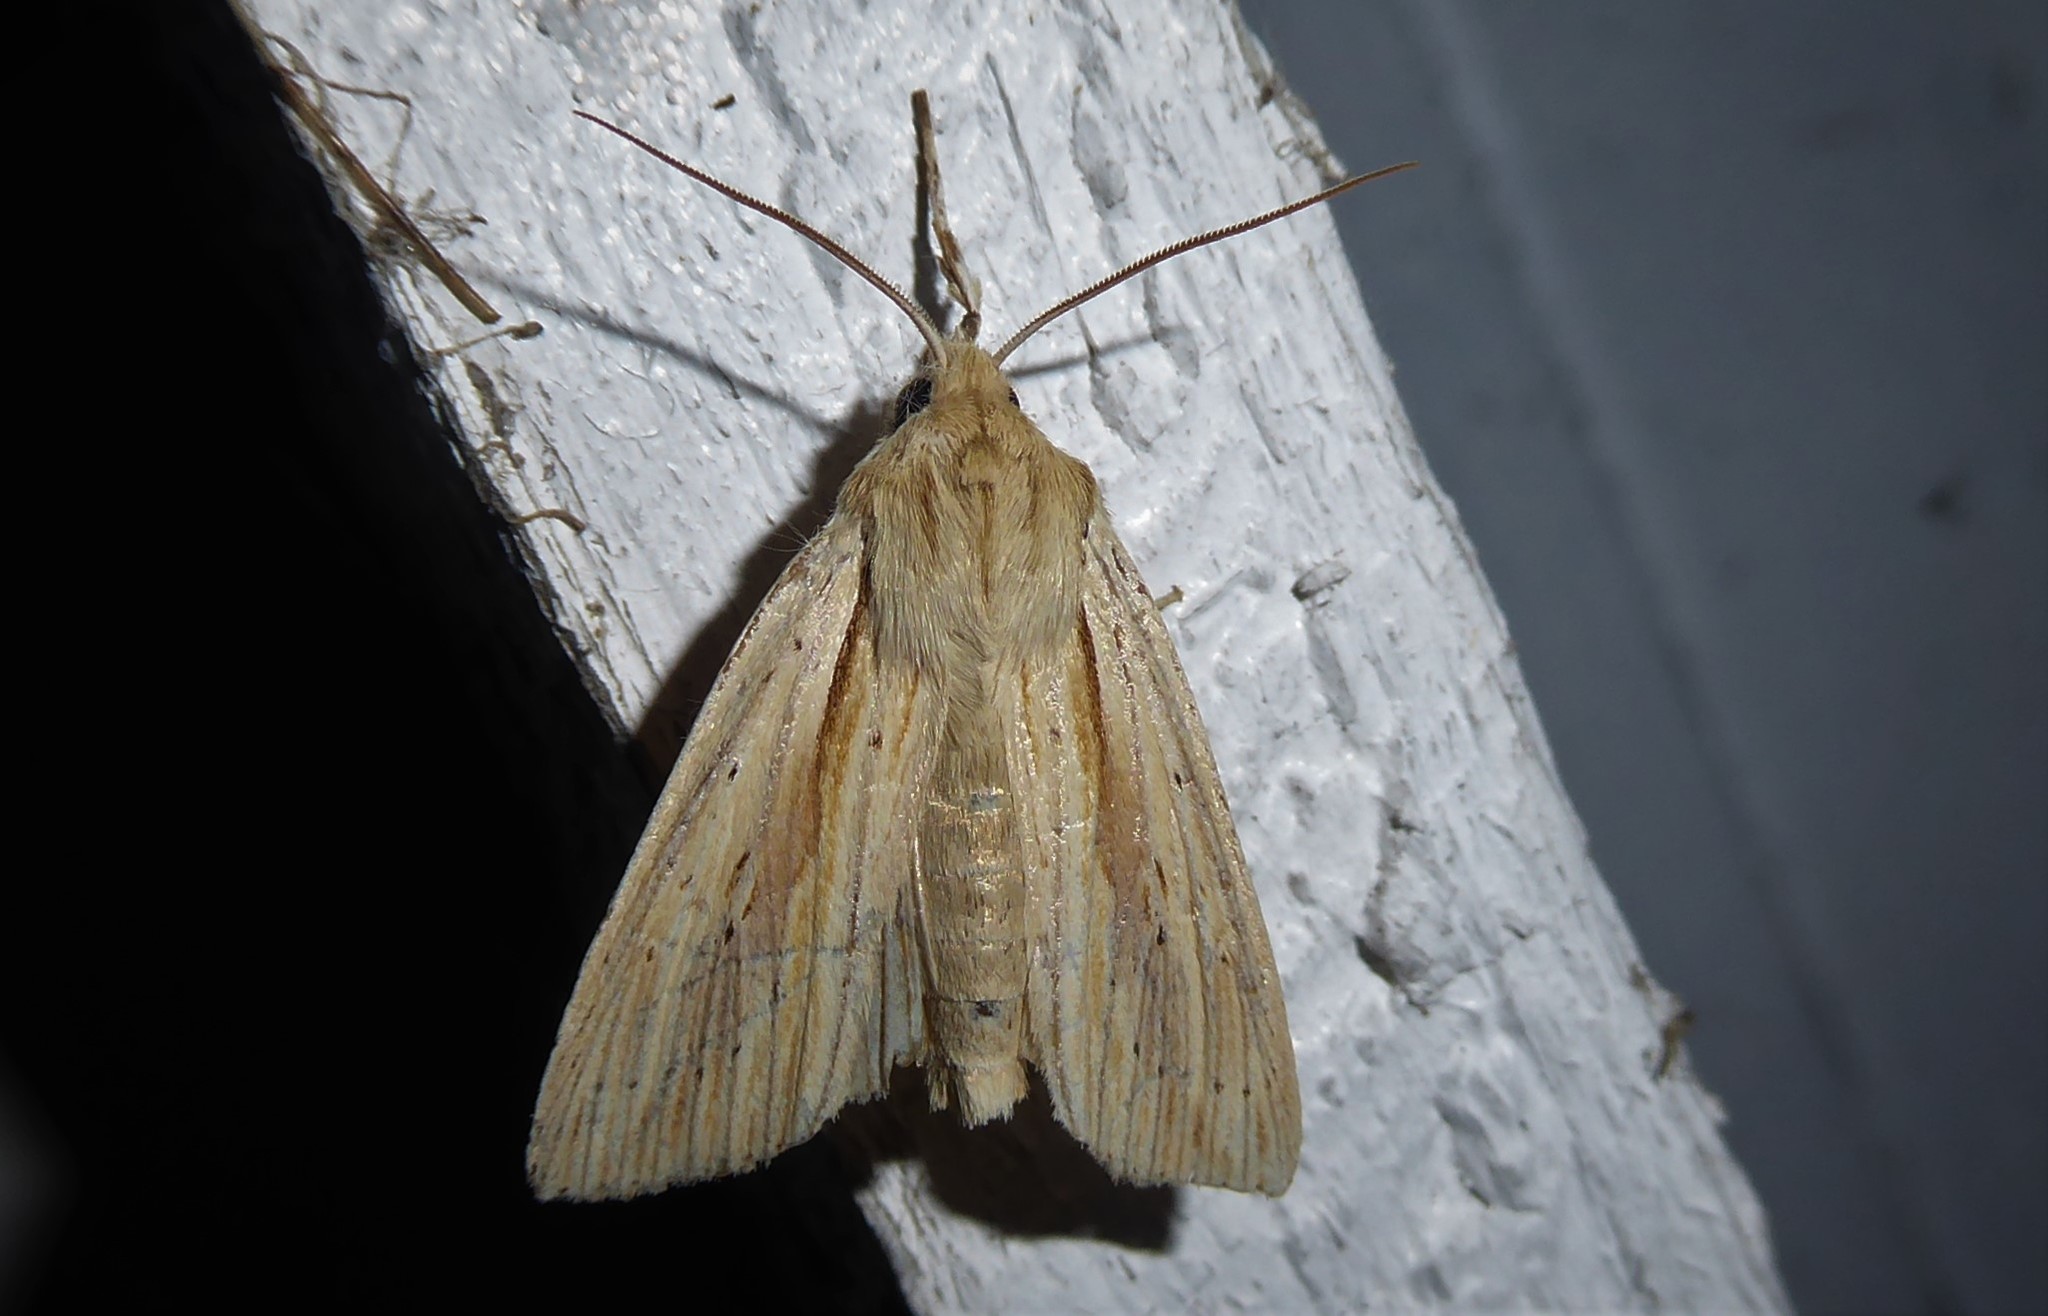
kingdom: Animalia
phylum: Arthropoda
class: Insecta
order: Lepidoptera
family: Noctuidae
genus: Ichneutica
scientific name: Ichneutica semivittata
